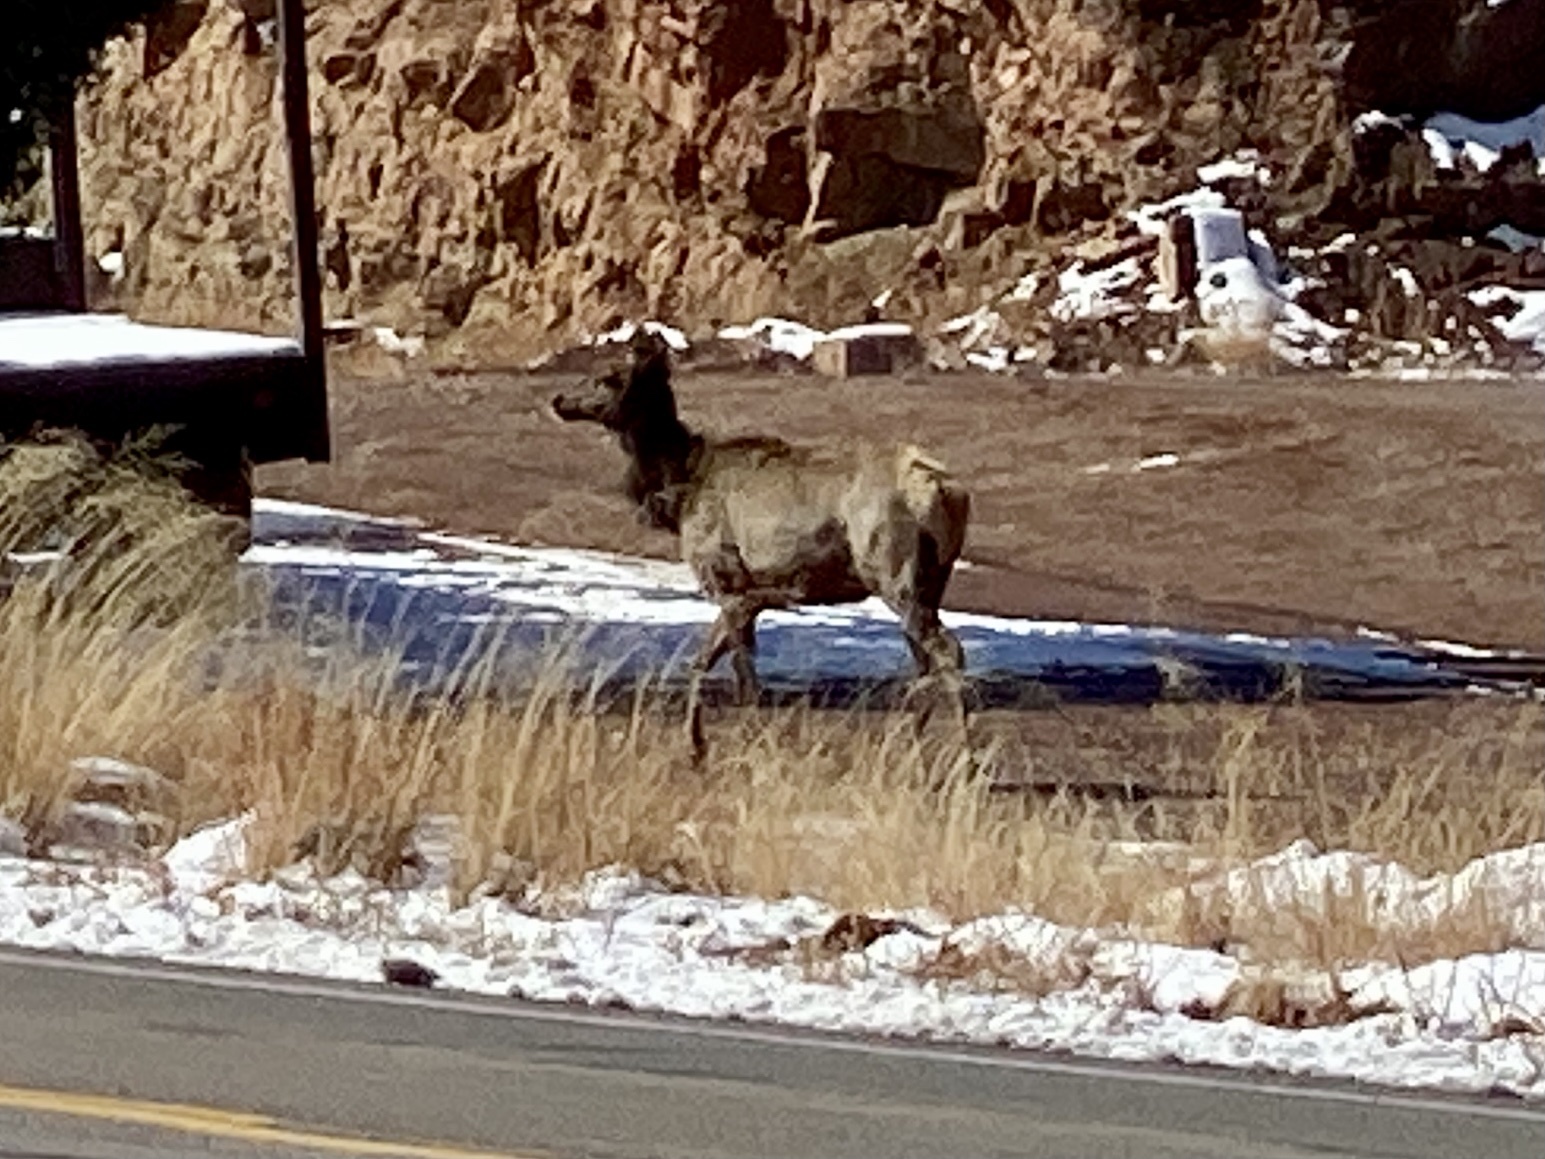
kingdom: Animalia
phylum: Chordata
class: Mammalia
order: Artiodactyla
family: Cervidae
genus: Cervus
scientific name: Cervus elaphus
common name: Red deer
